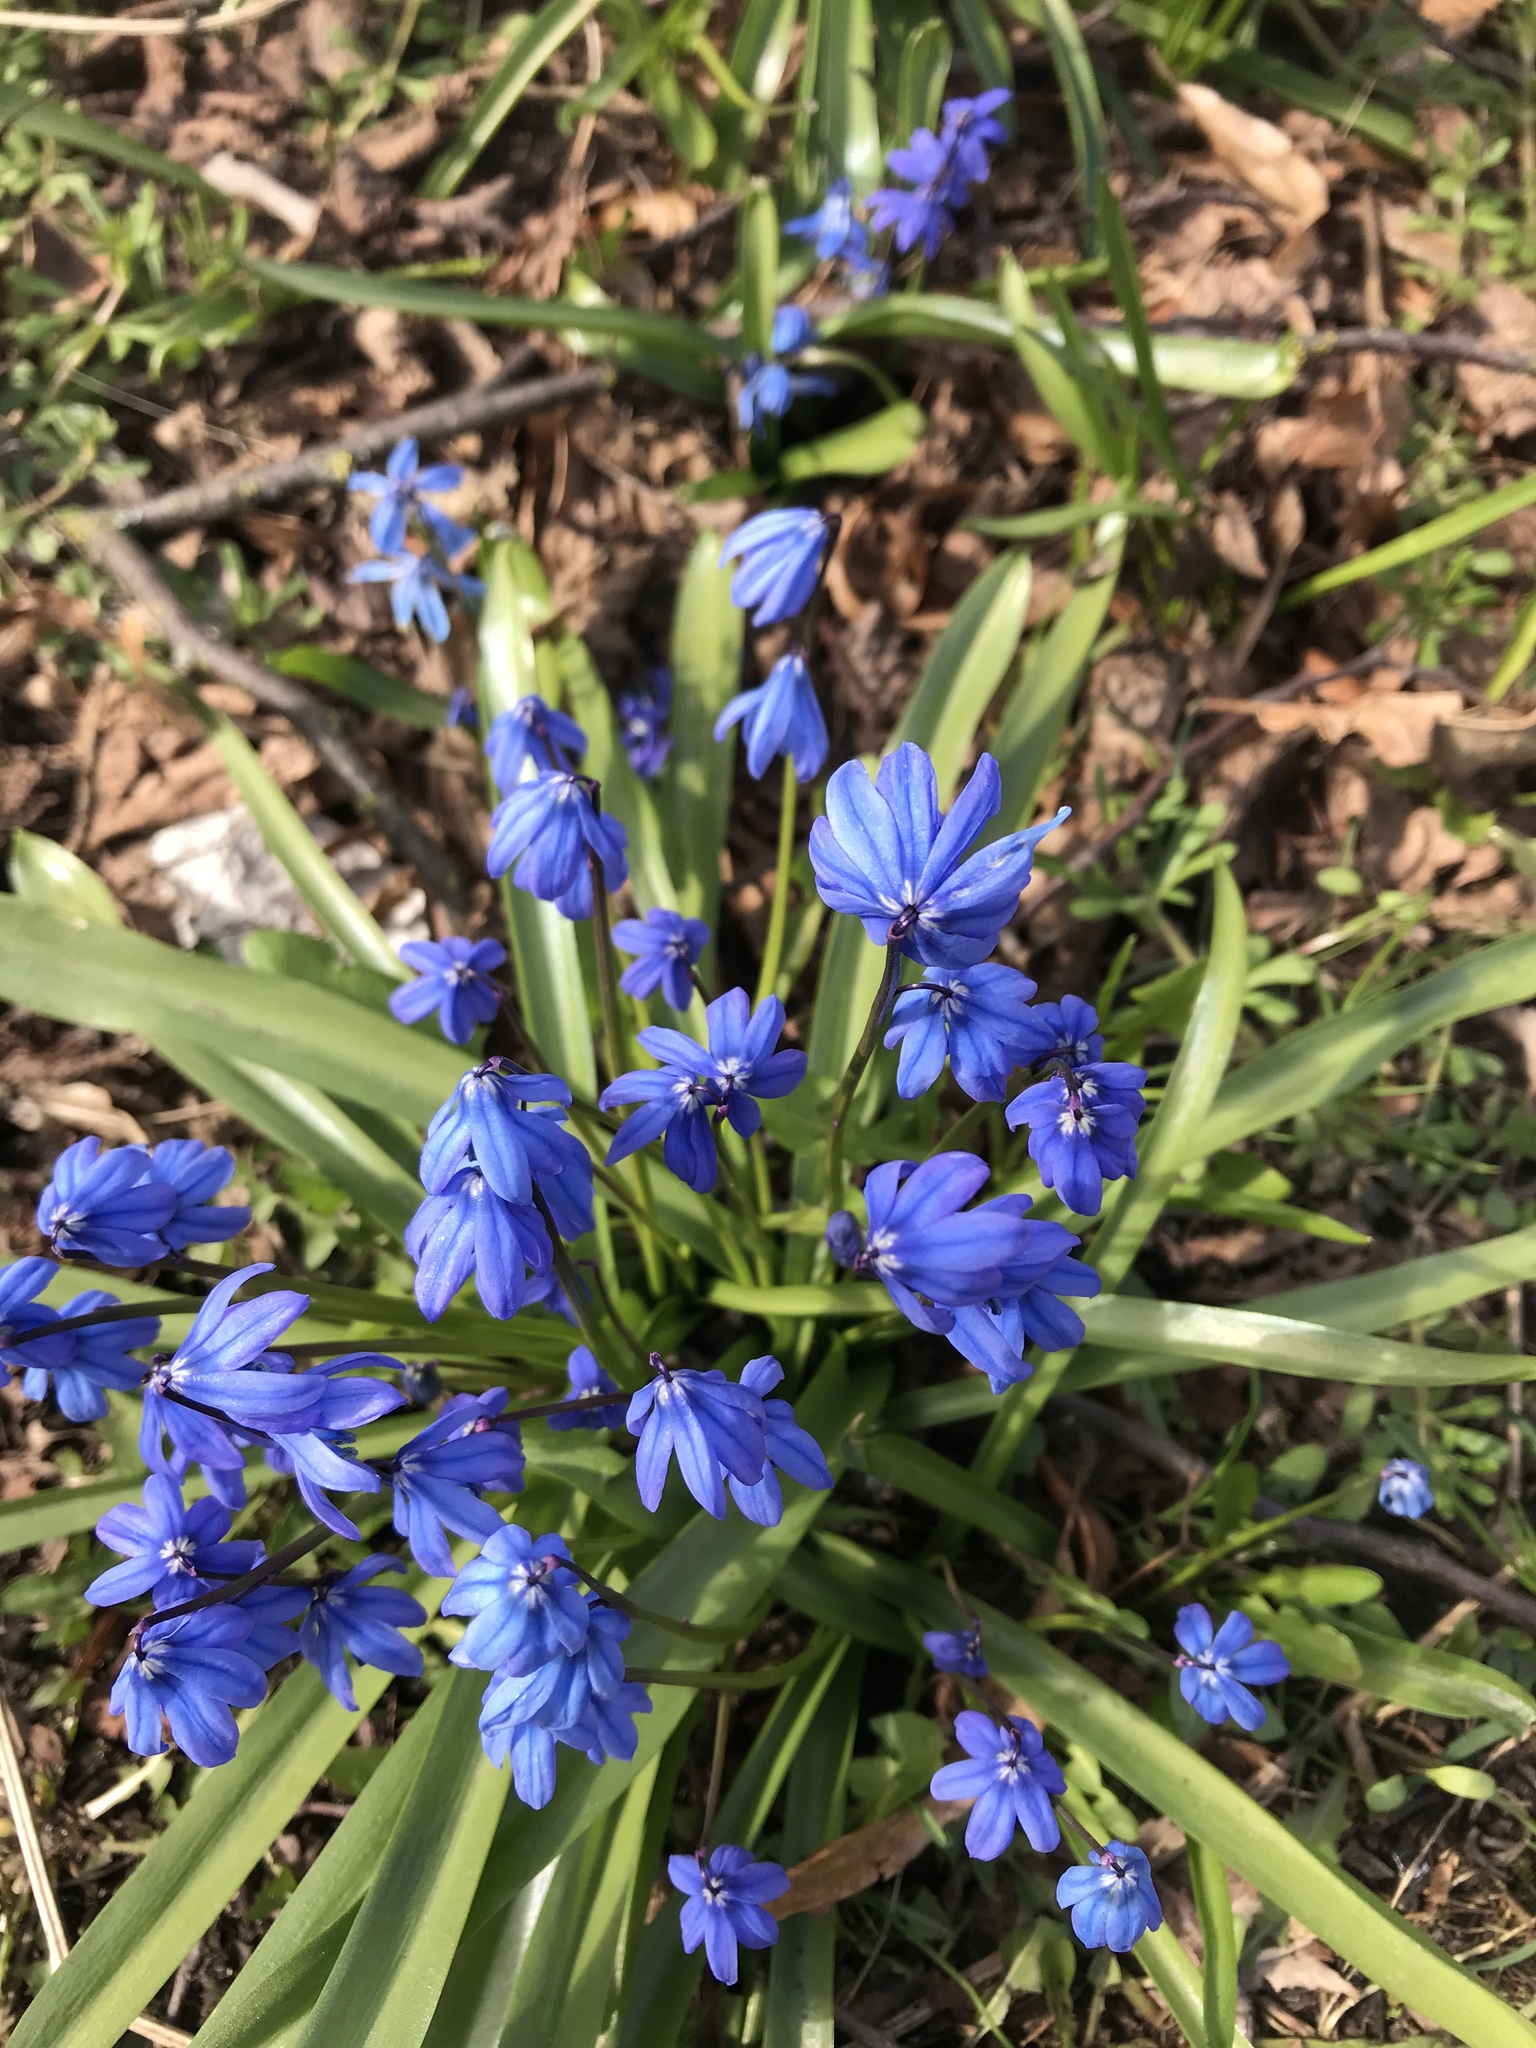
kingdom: Plantae
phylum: Tracheophyta
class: Liliopsida
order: Asparagales
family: Asparagaceae
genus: Scilla
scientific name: Scilla siberica
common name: Siberian squill
